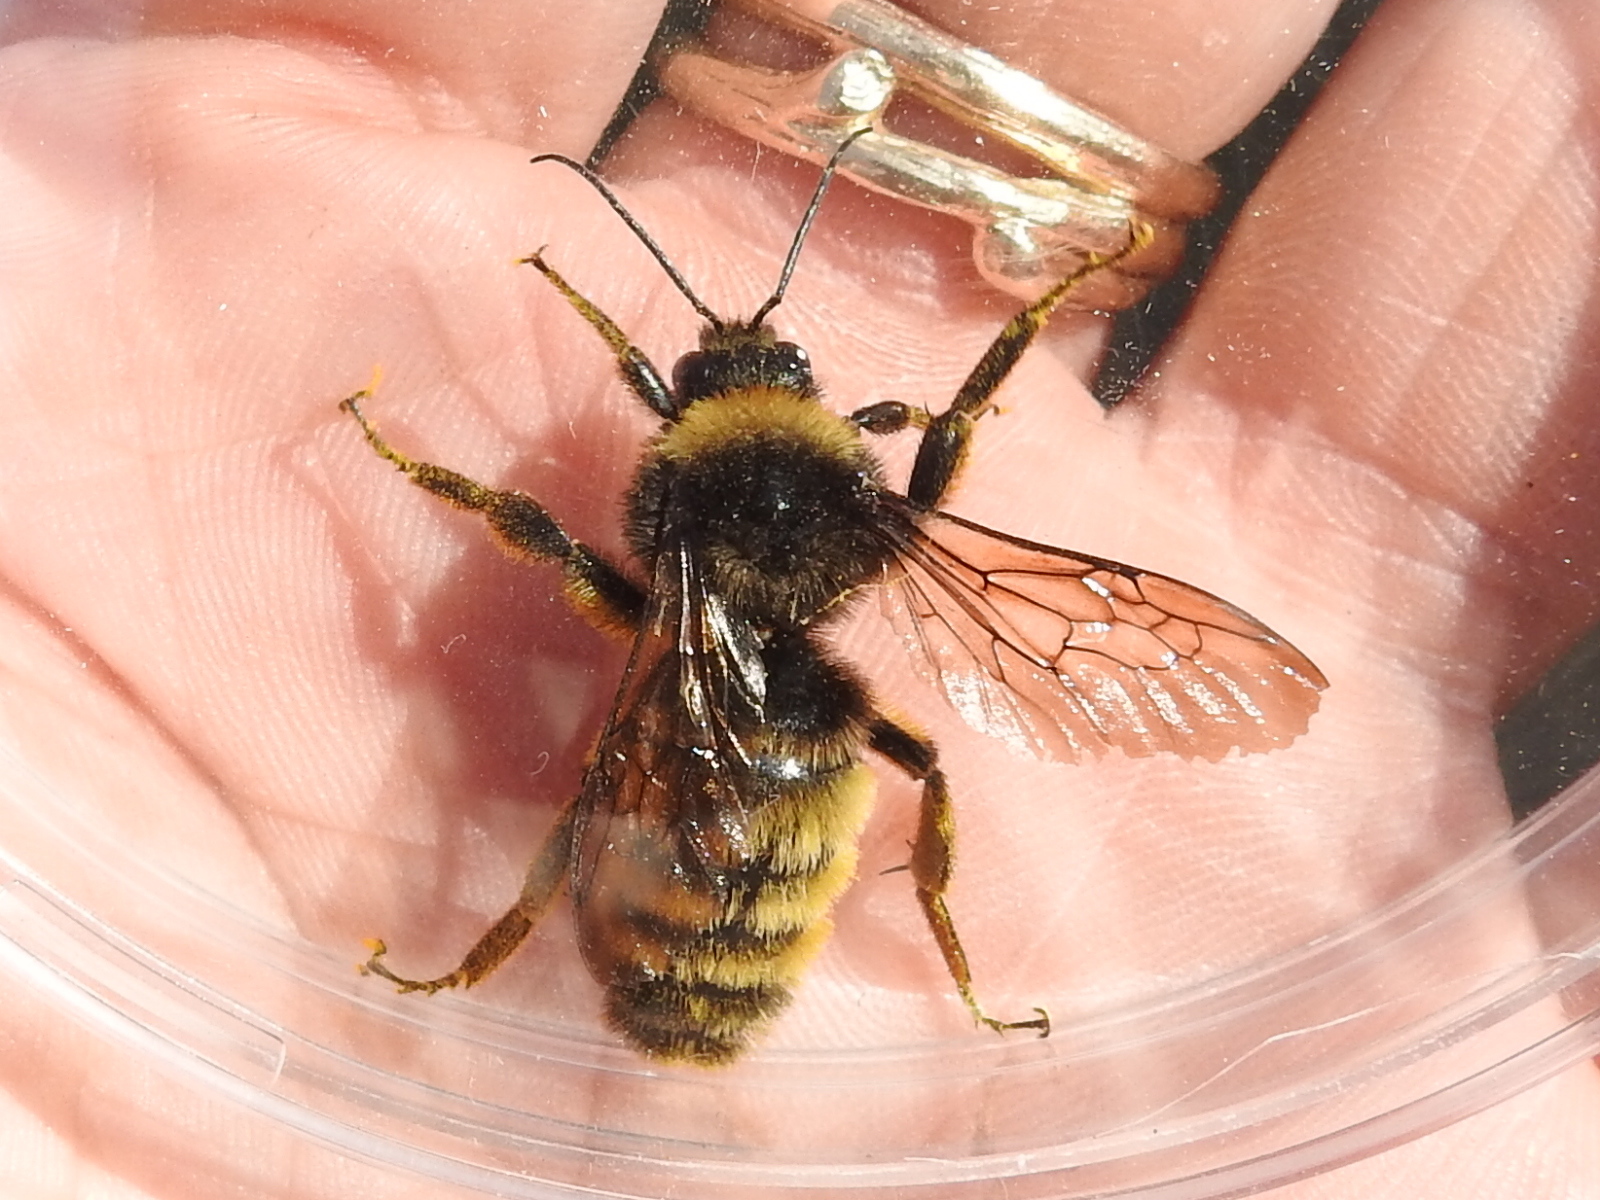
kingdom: Animalia
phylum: Arthropoda
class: Insecta
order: Hymenoptera
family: Apidae
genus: Bombus
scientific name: Bombus pensylvanicus
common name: Bumble bee
